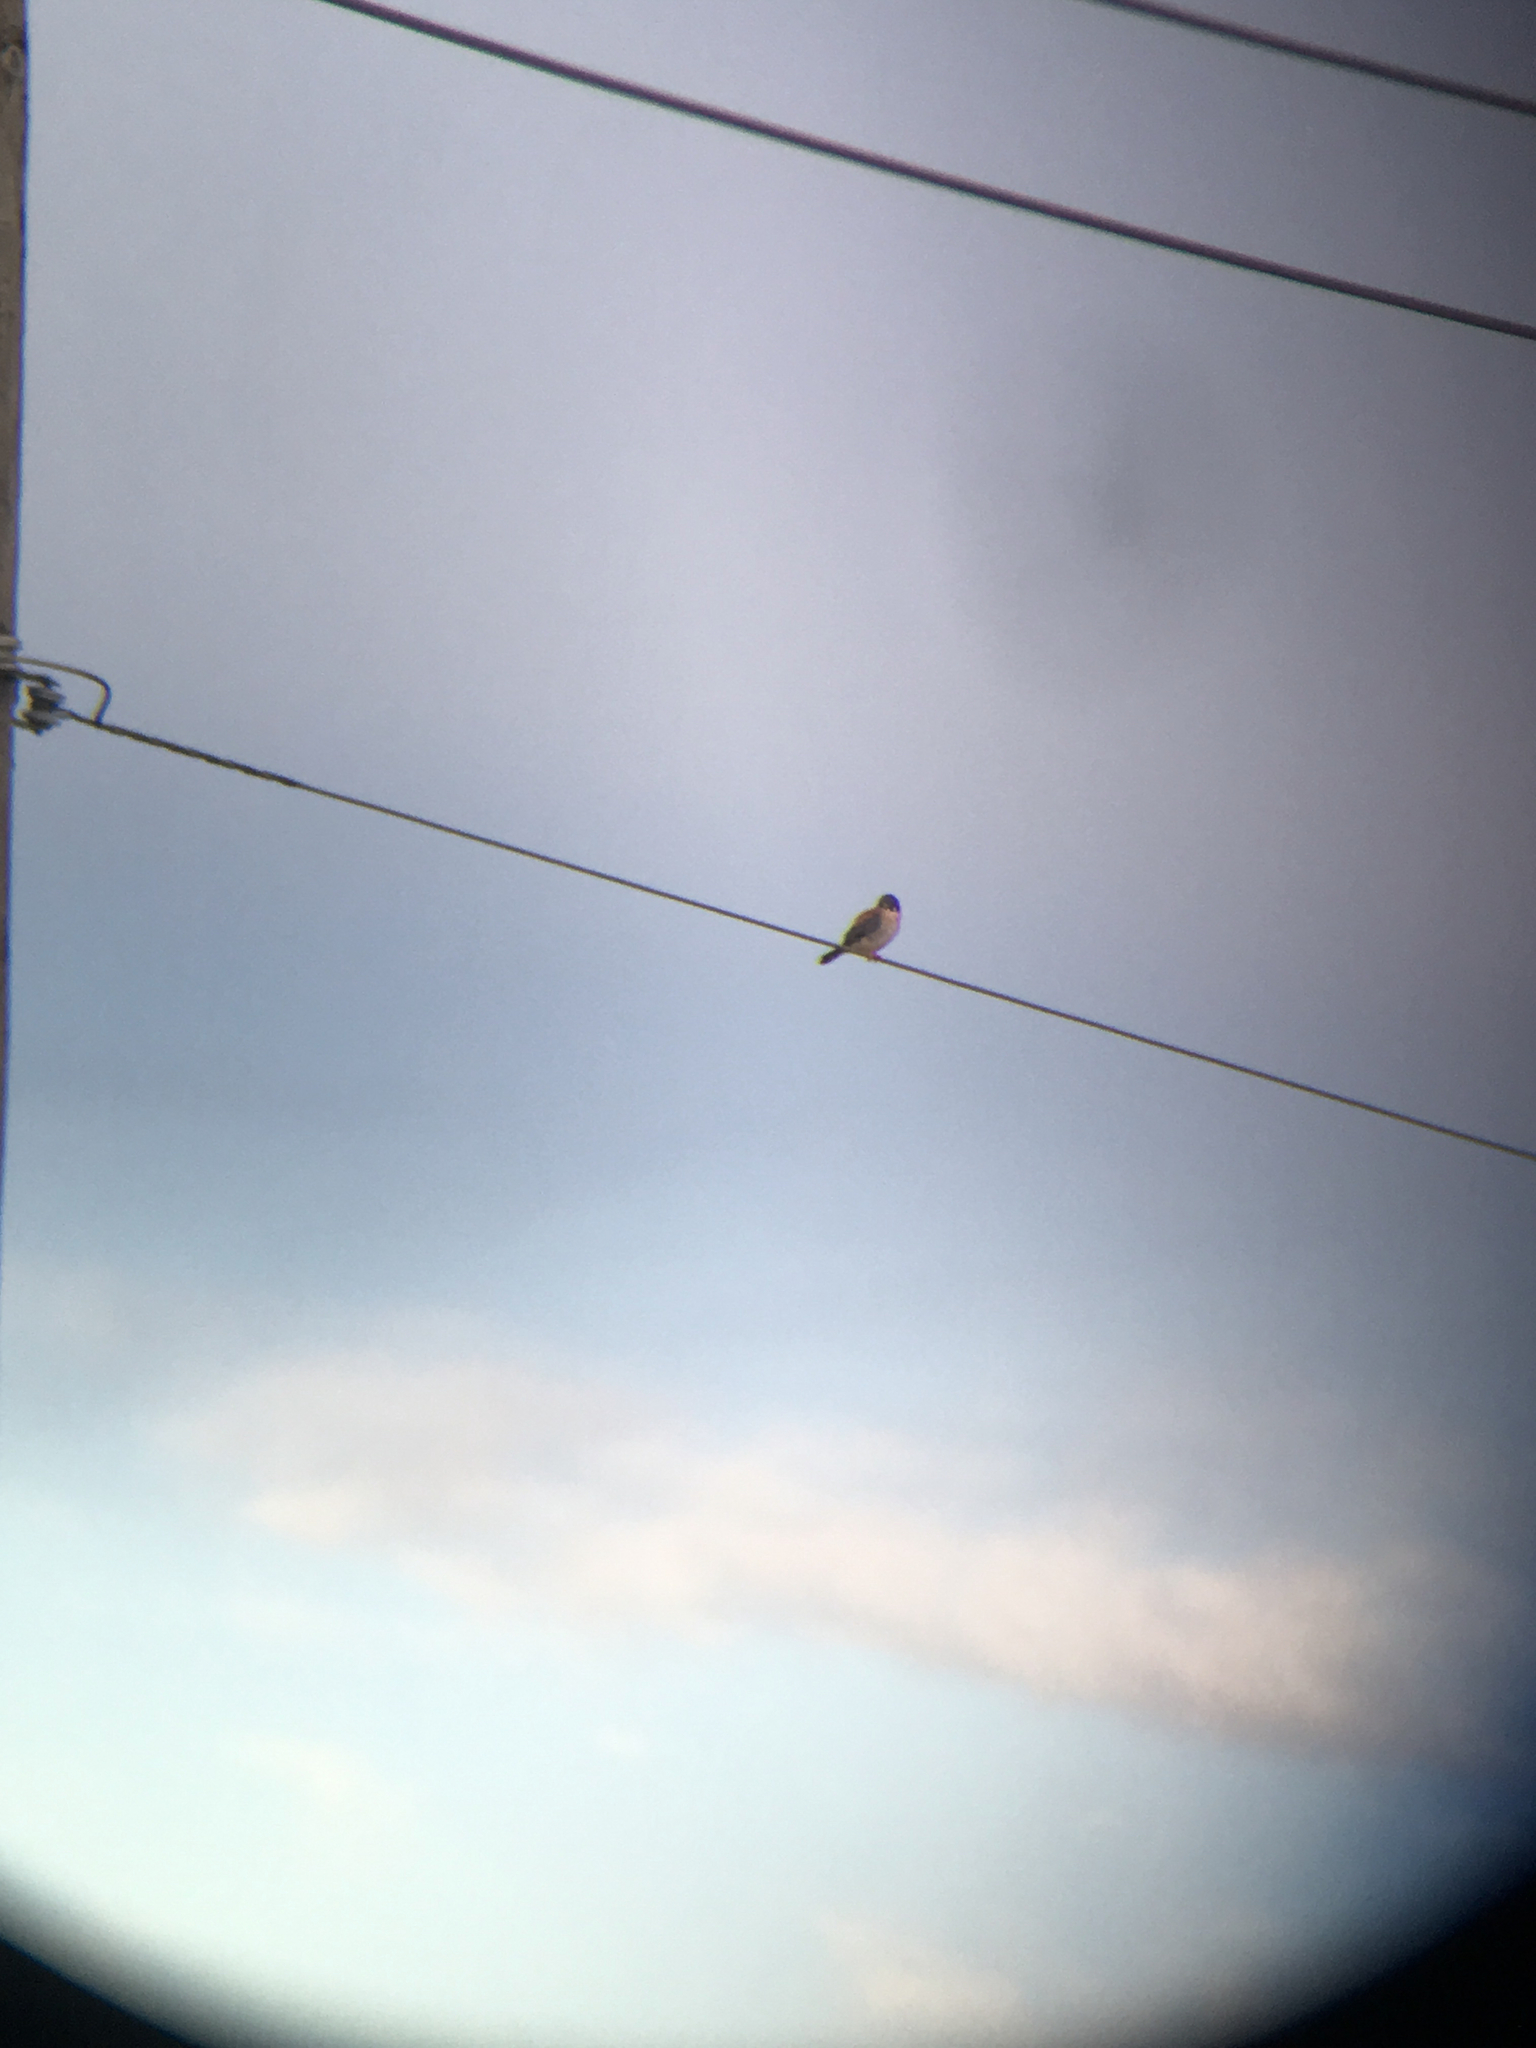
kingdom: Animalia
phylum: Chordata
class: Aves
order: Falconiformes
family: Falconidae
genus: Falco
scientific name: Falco sparverius
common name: American kestrel
